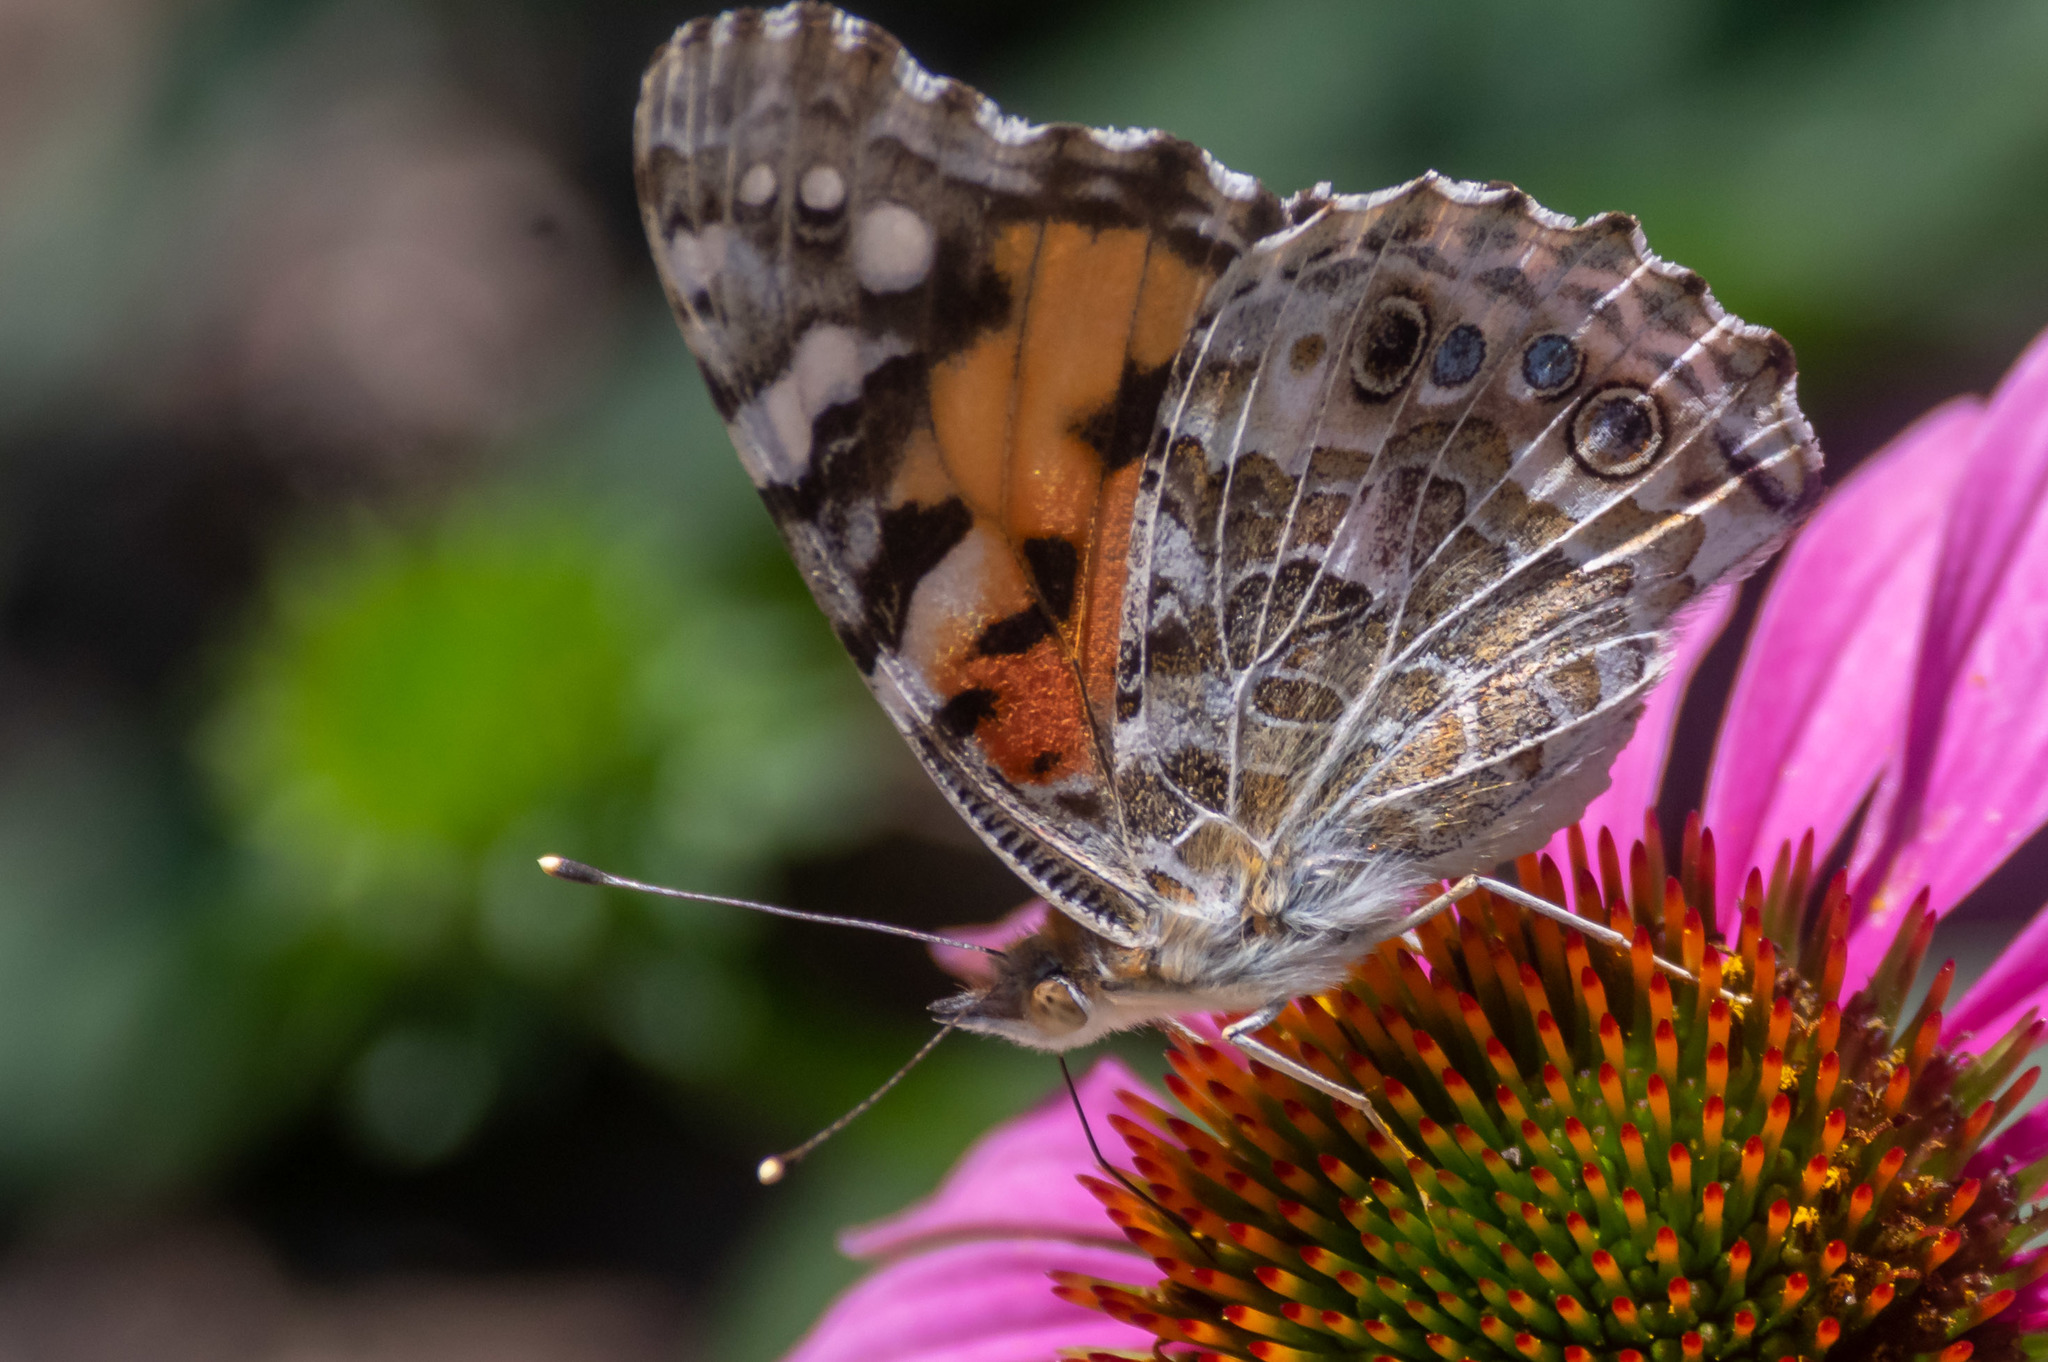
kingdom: Animalia
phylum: Arthropoda
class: Insecta
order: Lepidoptera
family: Nymphalidae
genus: Vanessa
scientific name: Vanessa cardui
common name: Painted lady
